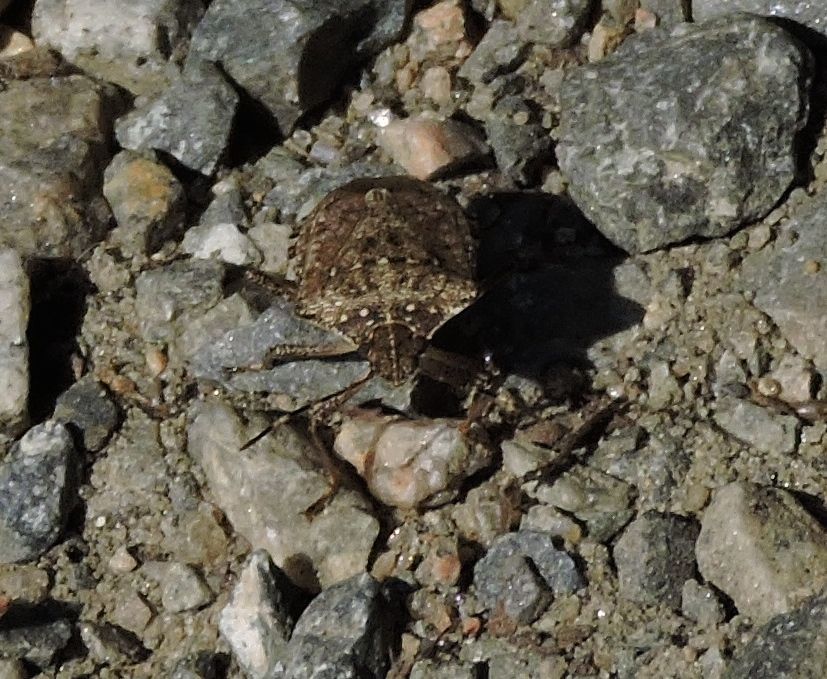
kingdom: Animalia
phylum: Arthropoda
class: Insecta
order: Hemiptera
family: Pentatomidae
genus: Halyomorpha
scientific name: Halyomorpha halys
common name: Brown marmorated stink bug
